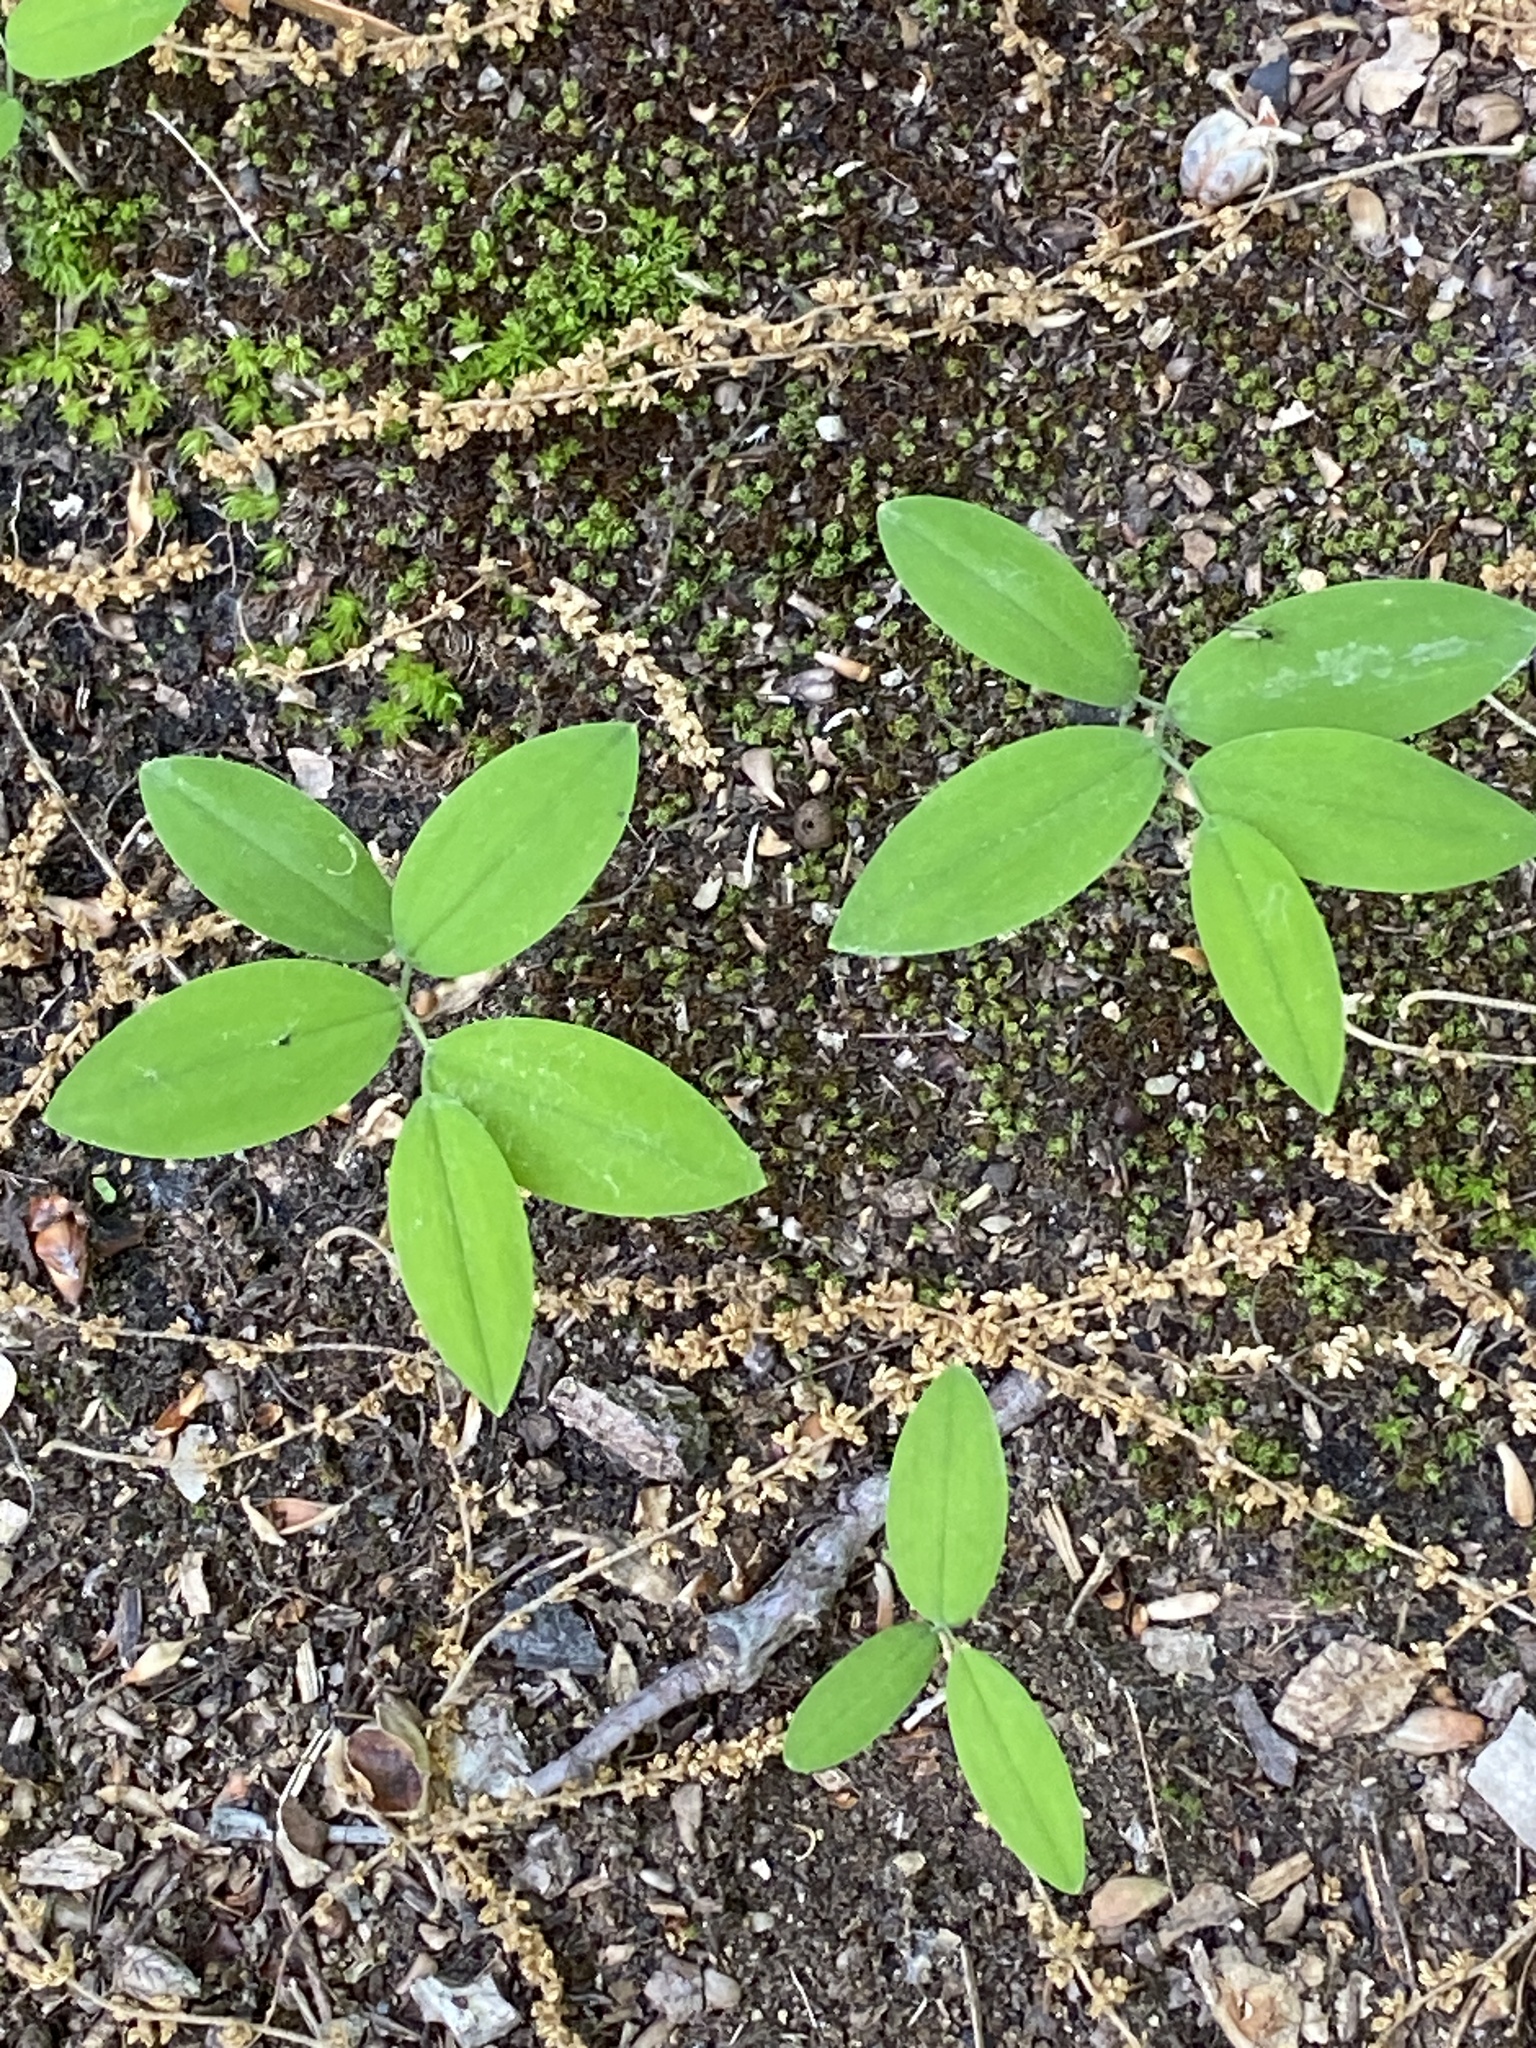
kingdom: Plantae
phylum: Tracheophyta
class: Liliopsida
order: Liliales
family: Colchicaceae
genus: Uvularia
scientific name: Uvularia sessilifolia
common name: Straw-lily
